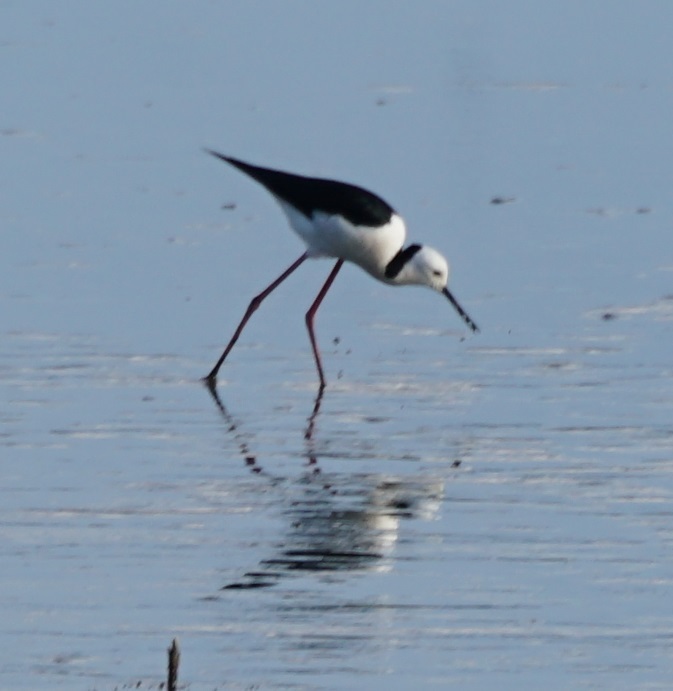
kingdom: Animalia
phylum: Chordata
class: Aves
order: Charadriiformes
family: Recurvirostridae
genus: Himantopus
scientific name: Himantopus leucocephalus
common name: White-headed stilt
